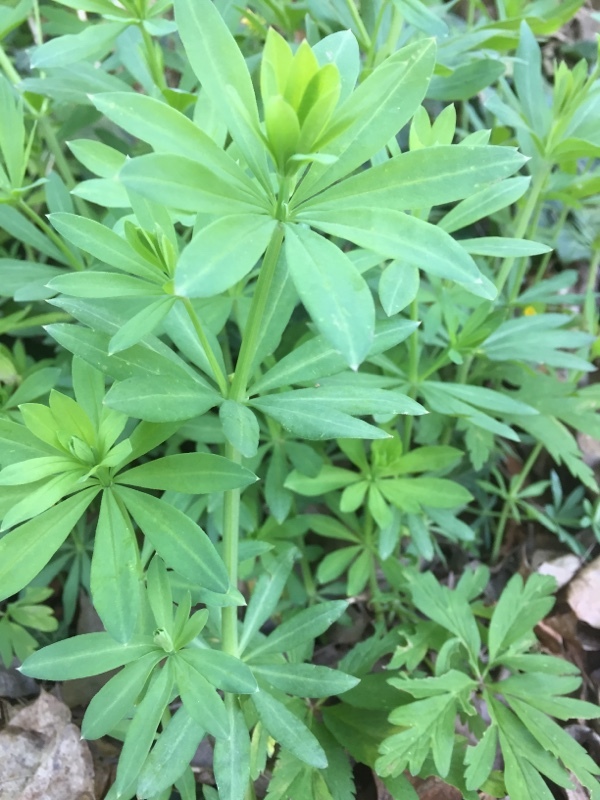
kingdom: Plantae
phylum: Tracheophyta
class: Magnoliopsida
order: Gentianales
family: Rubiaceae
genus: Galium
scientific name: Galium sylvaticum
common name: Wood bedstraw
